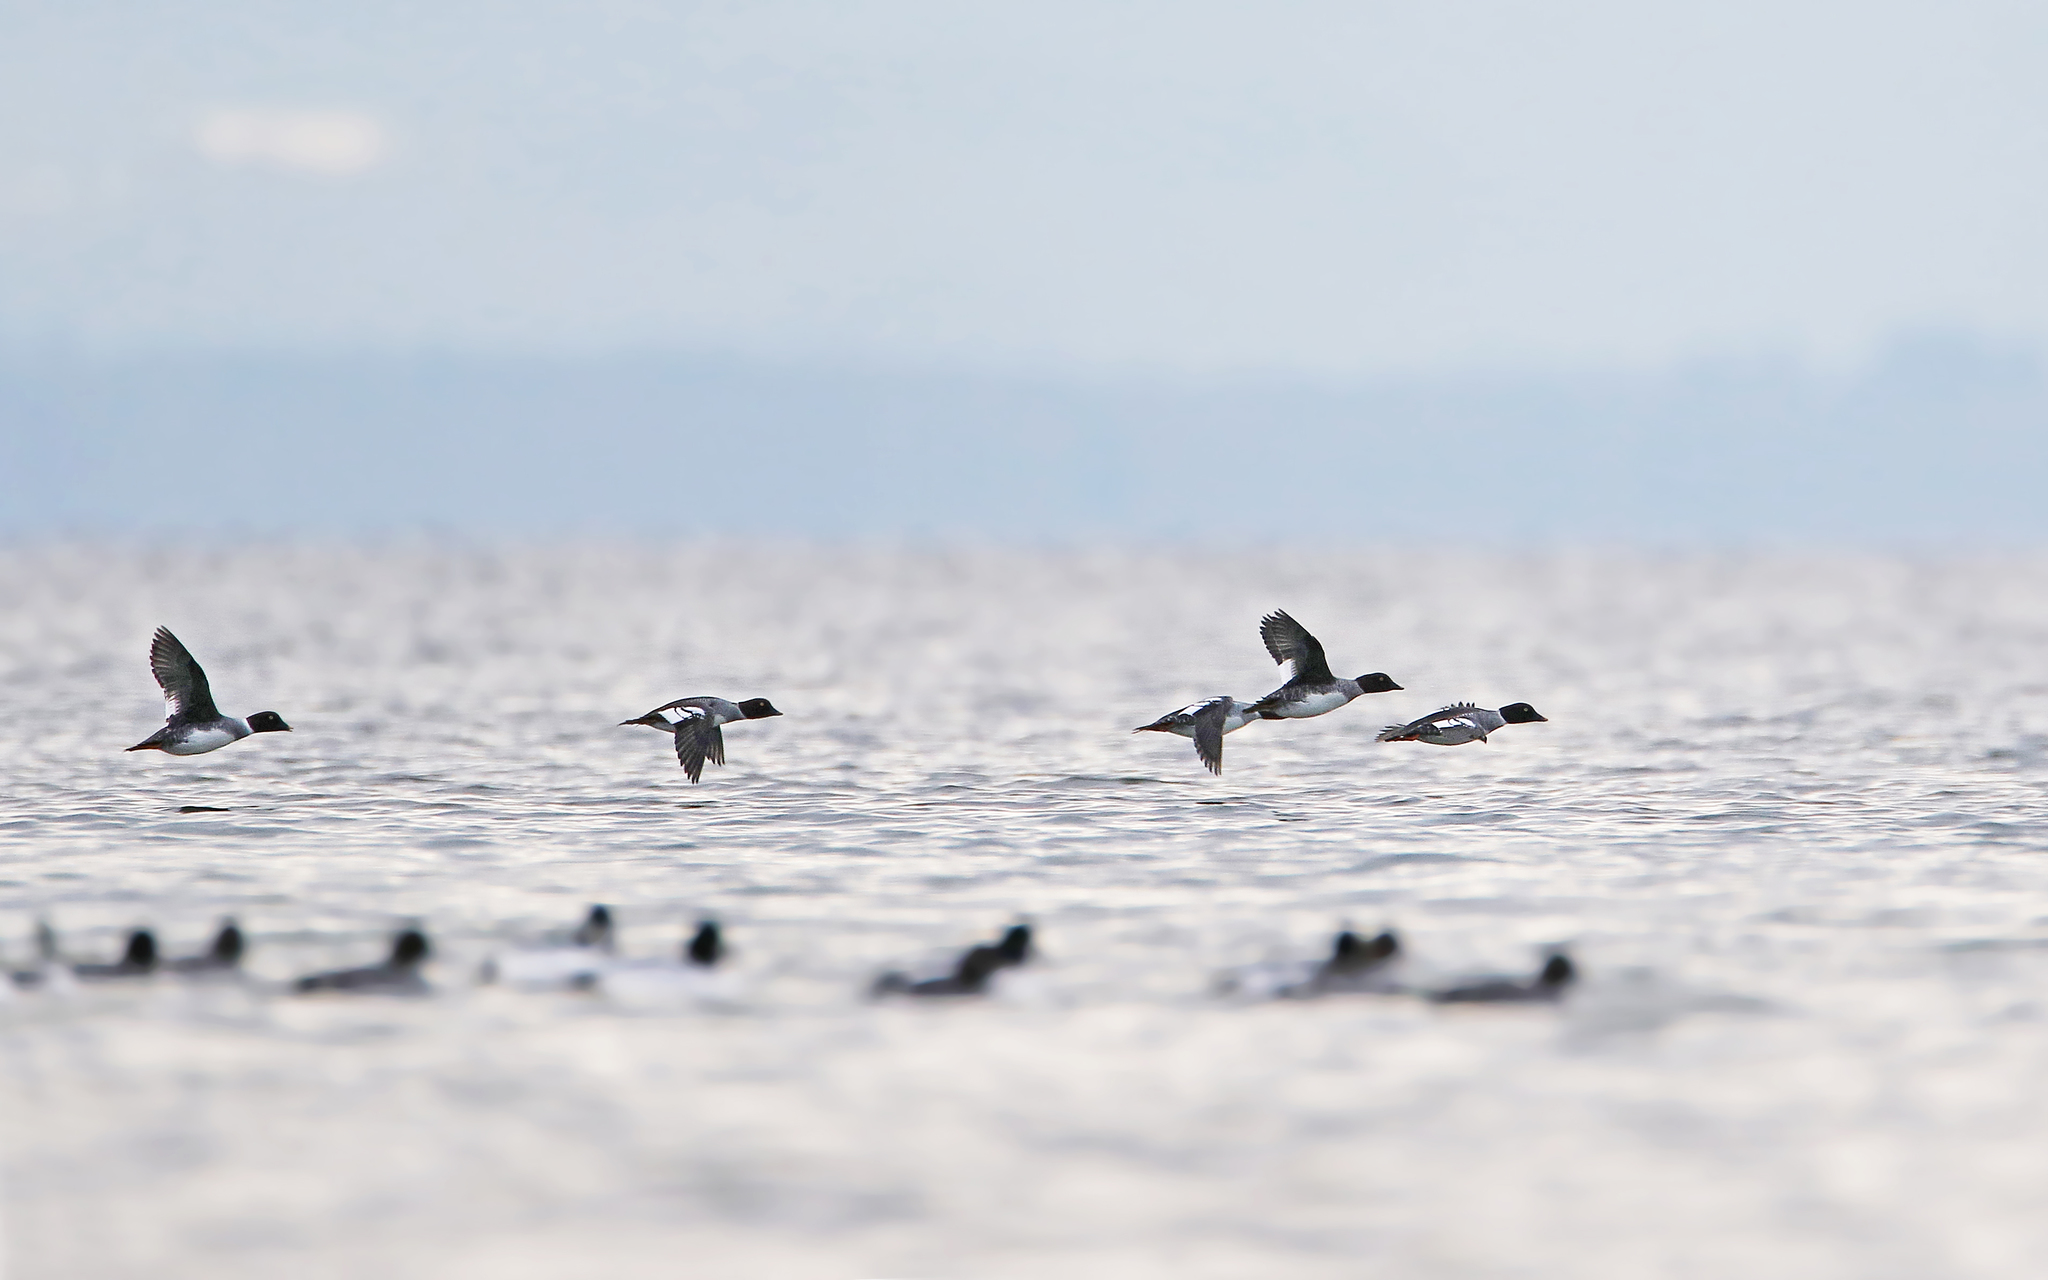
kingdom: Animalia
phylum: Chordata
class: Aves
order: Anseriformes
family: Anatidae
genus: Bucephala
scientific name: Bucephala clangula
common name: Common goldeneye
